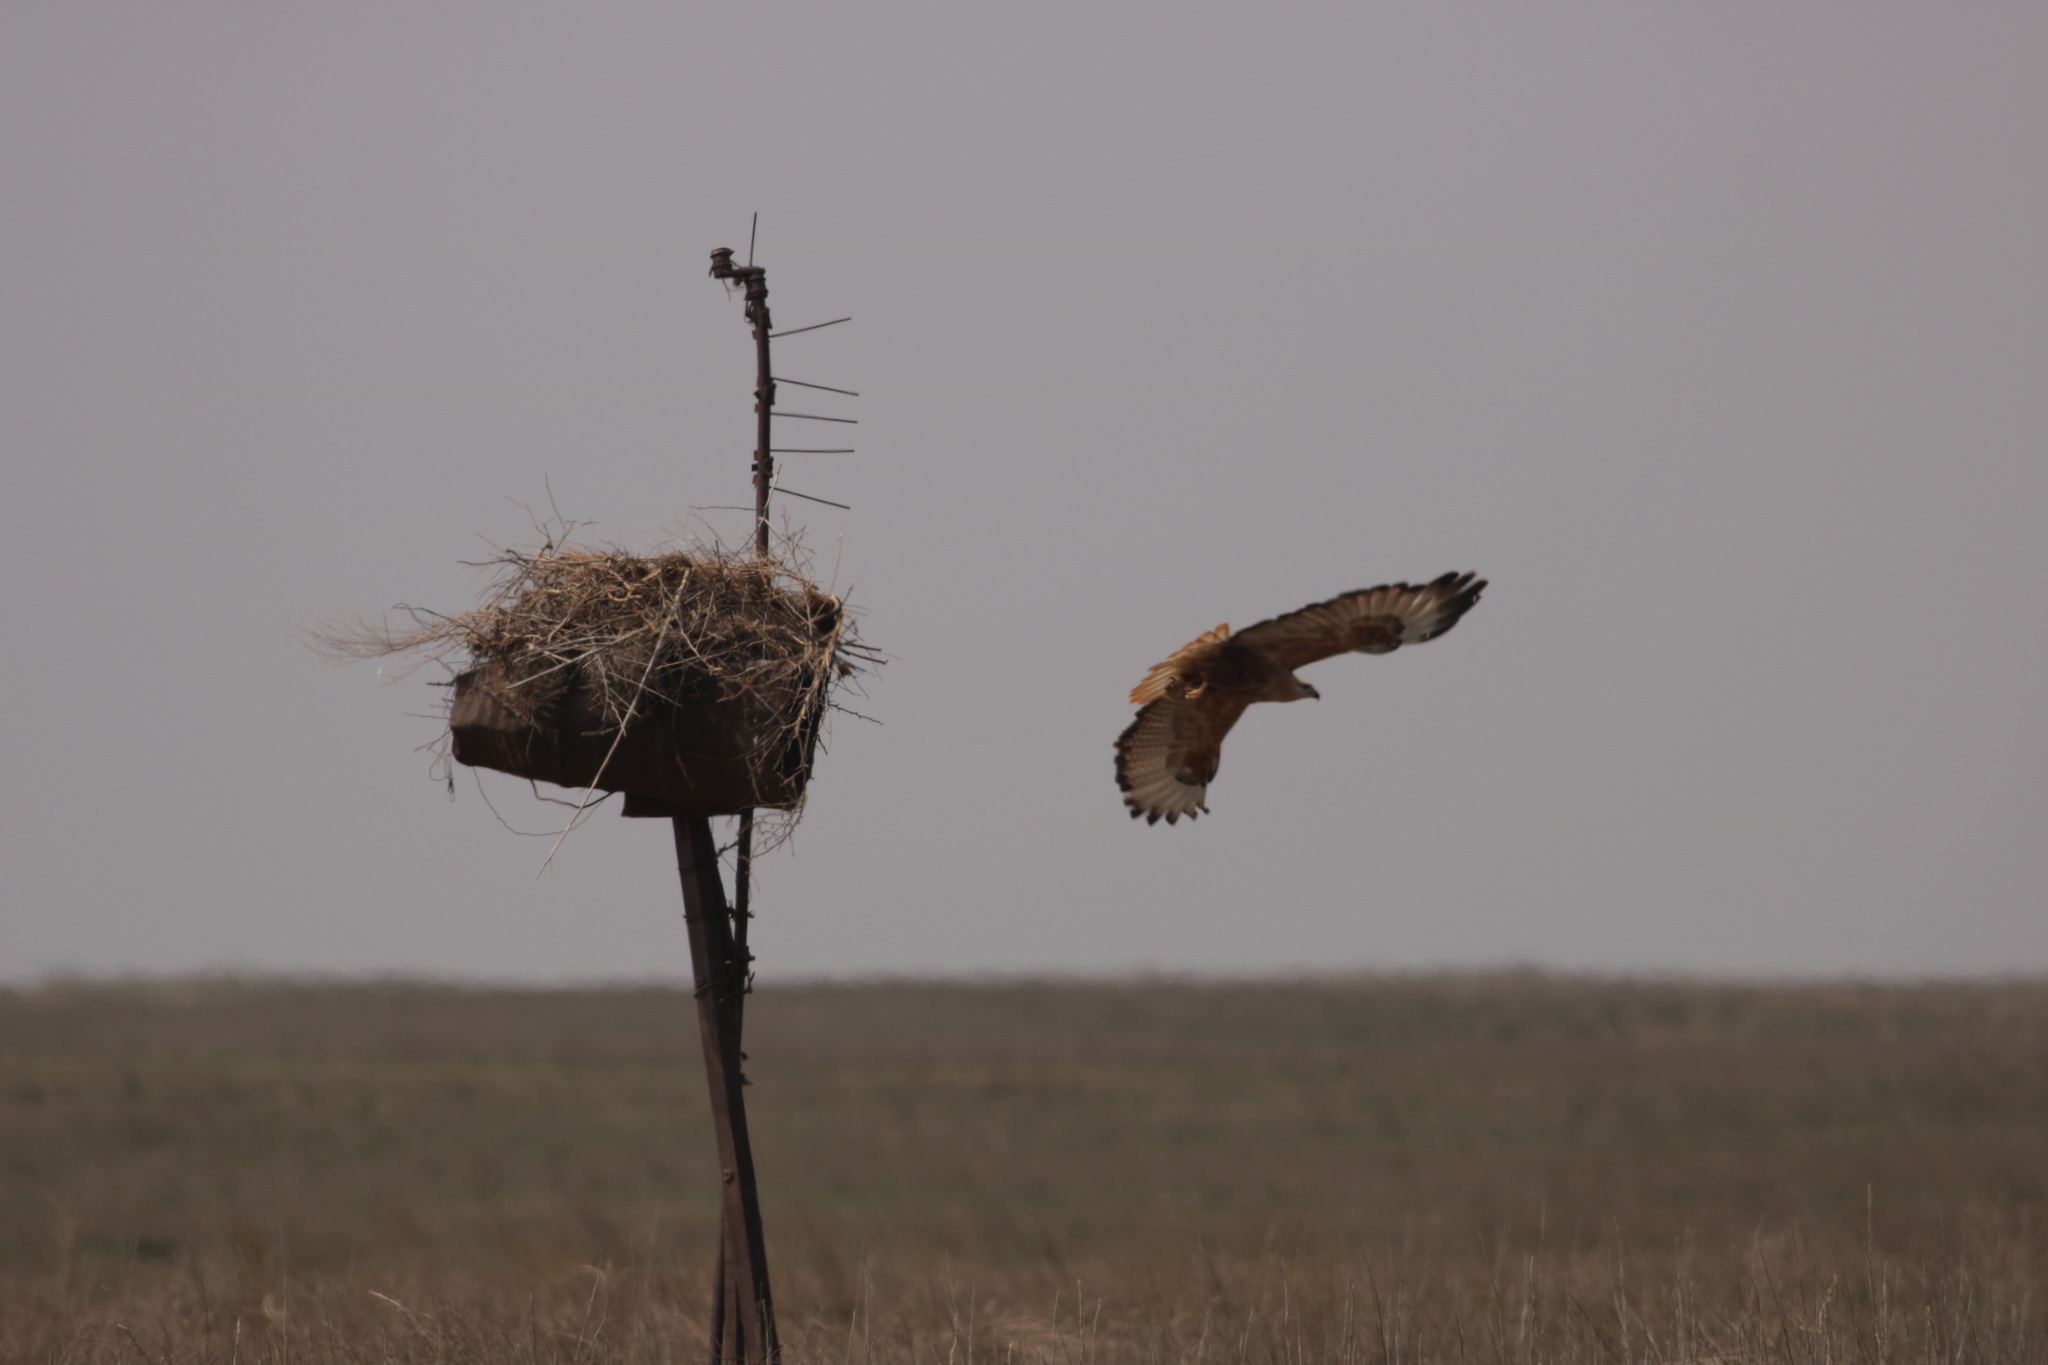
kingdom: Animalia
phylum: Chordata
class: Aves
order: Accipitriformes
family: Accipitridae
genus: Buteo
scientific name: Buteo rufinus
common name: Long-legged buzzard
